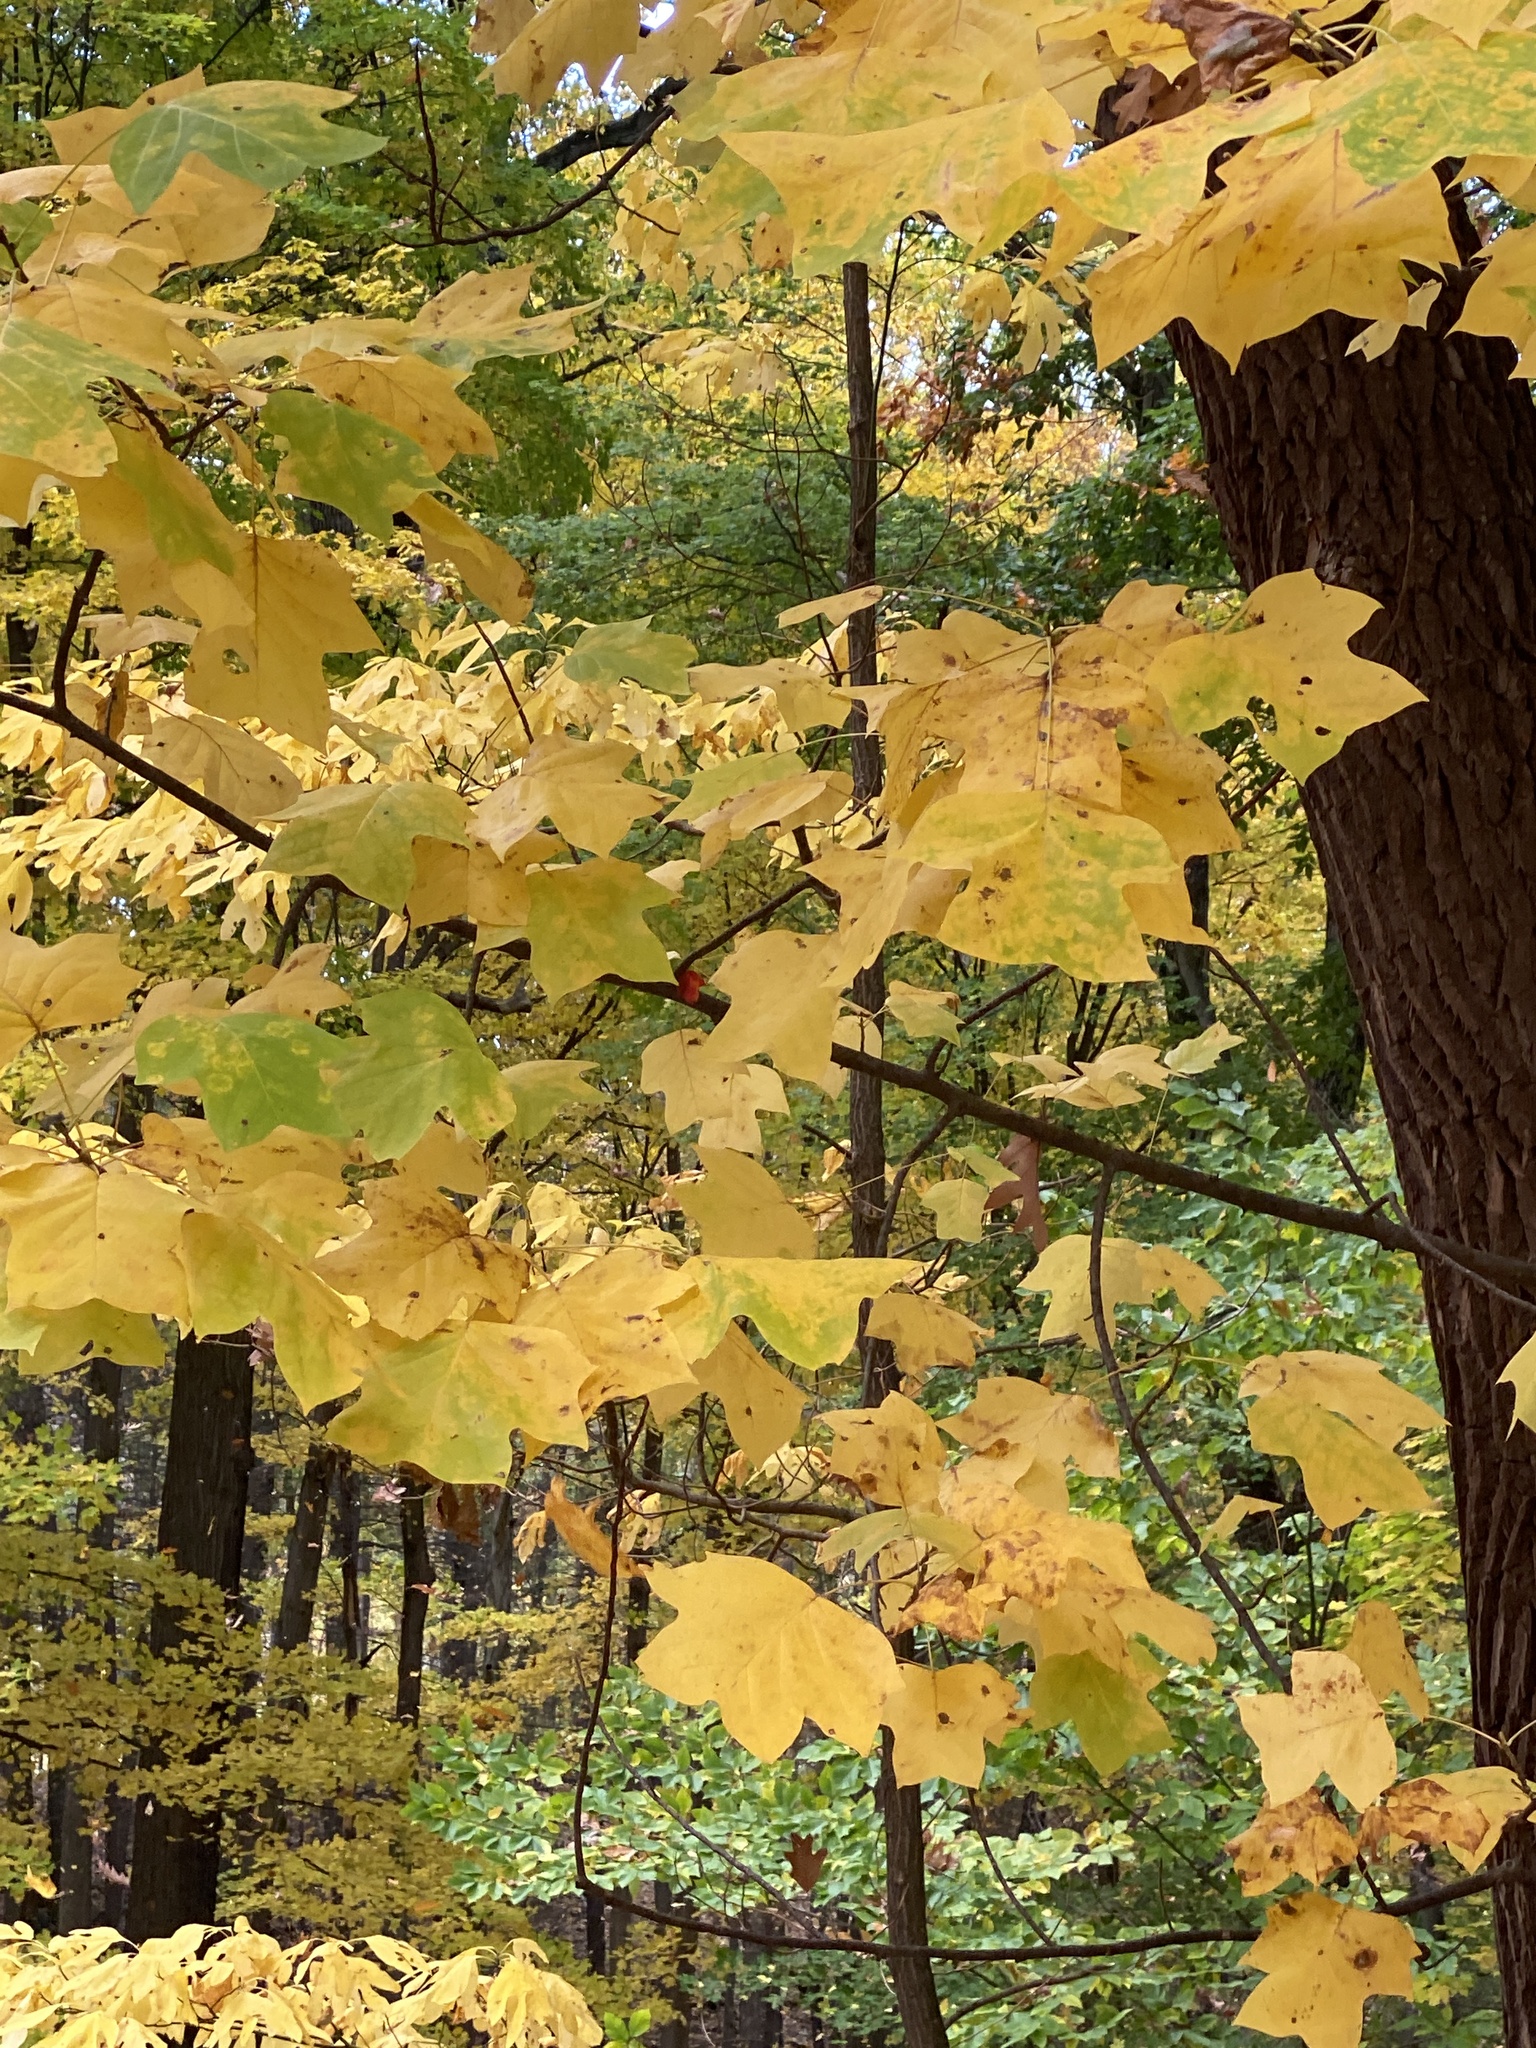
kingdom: Plantae
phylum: Tracheophyta
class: Magnoliopsida
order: Magnoliales
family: Magnoliaceae
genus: Liriodendron
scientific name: Liriodendron tulipifera
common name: Tulip tree
